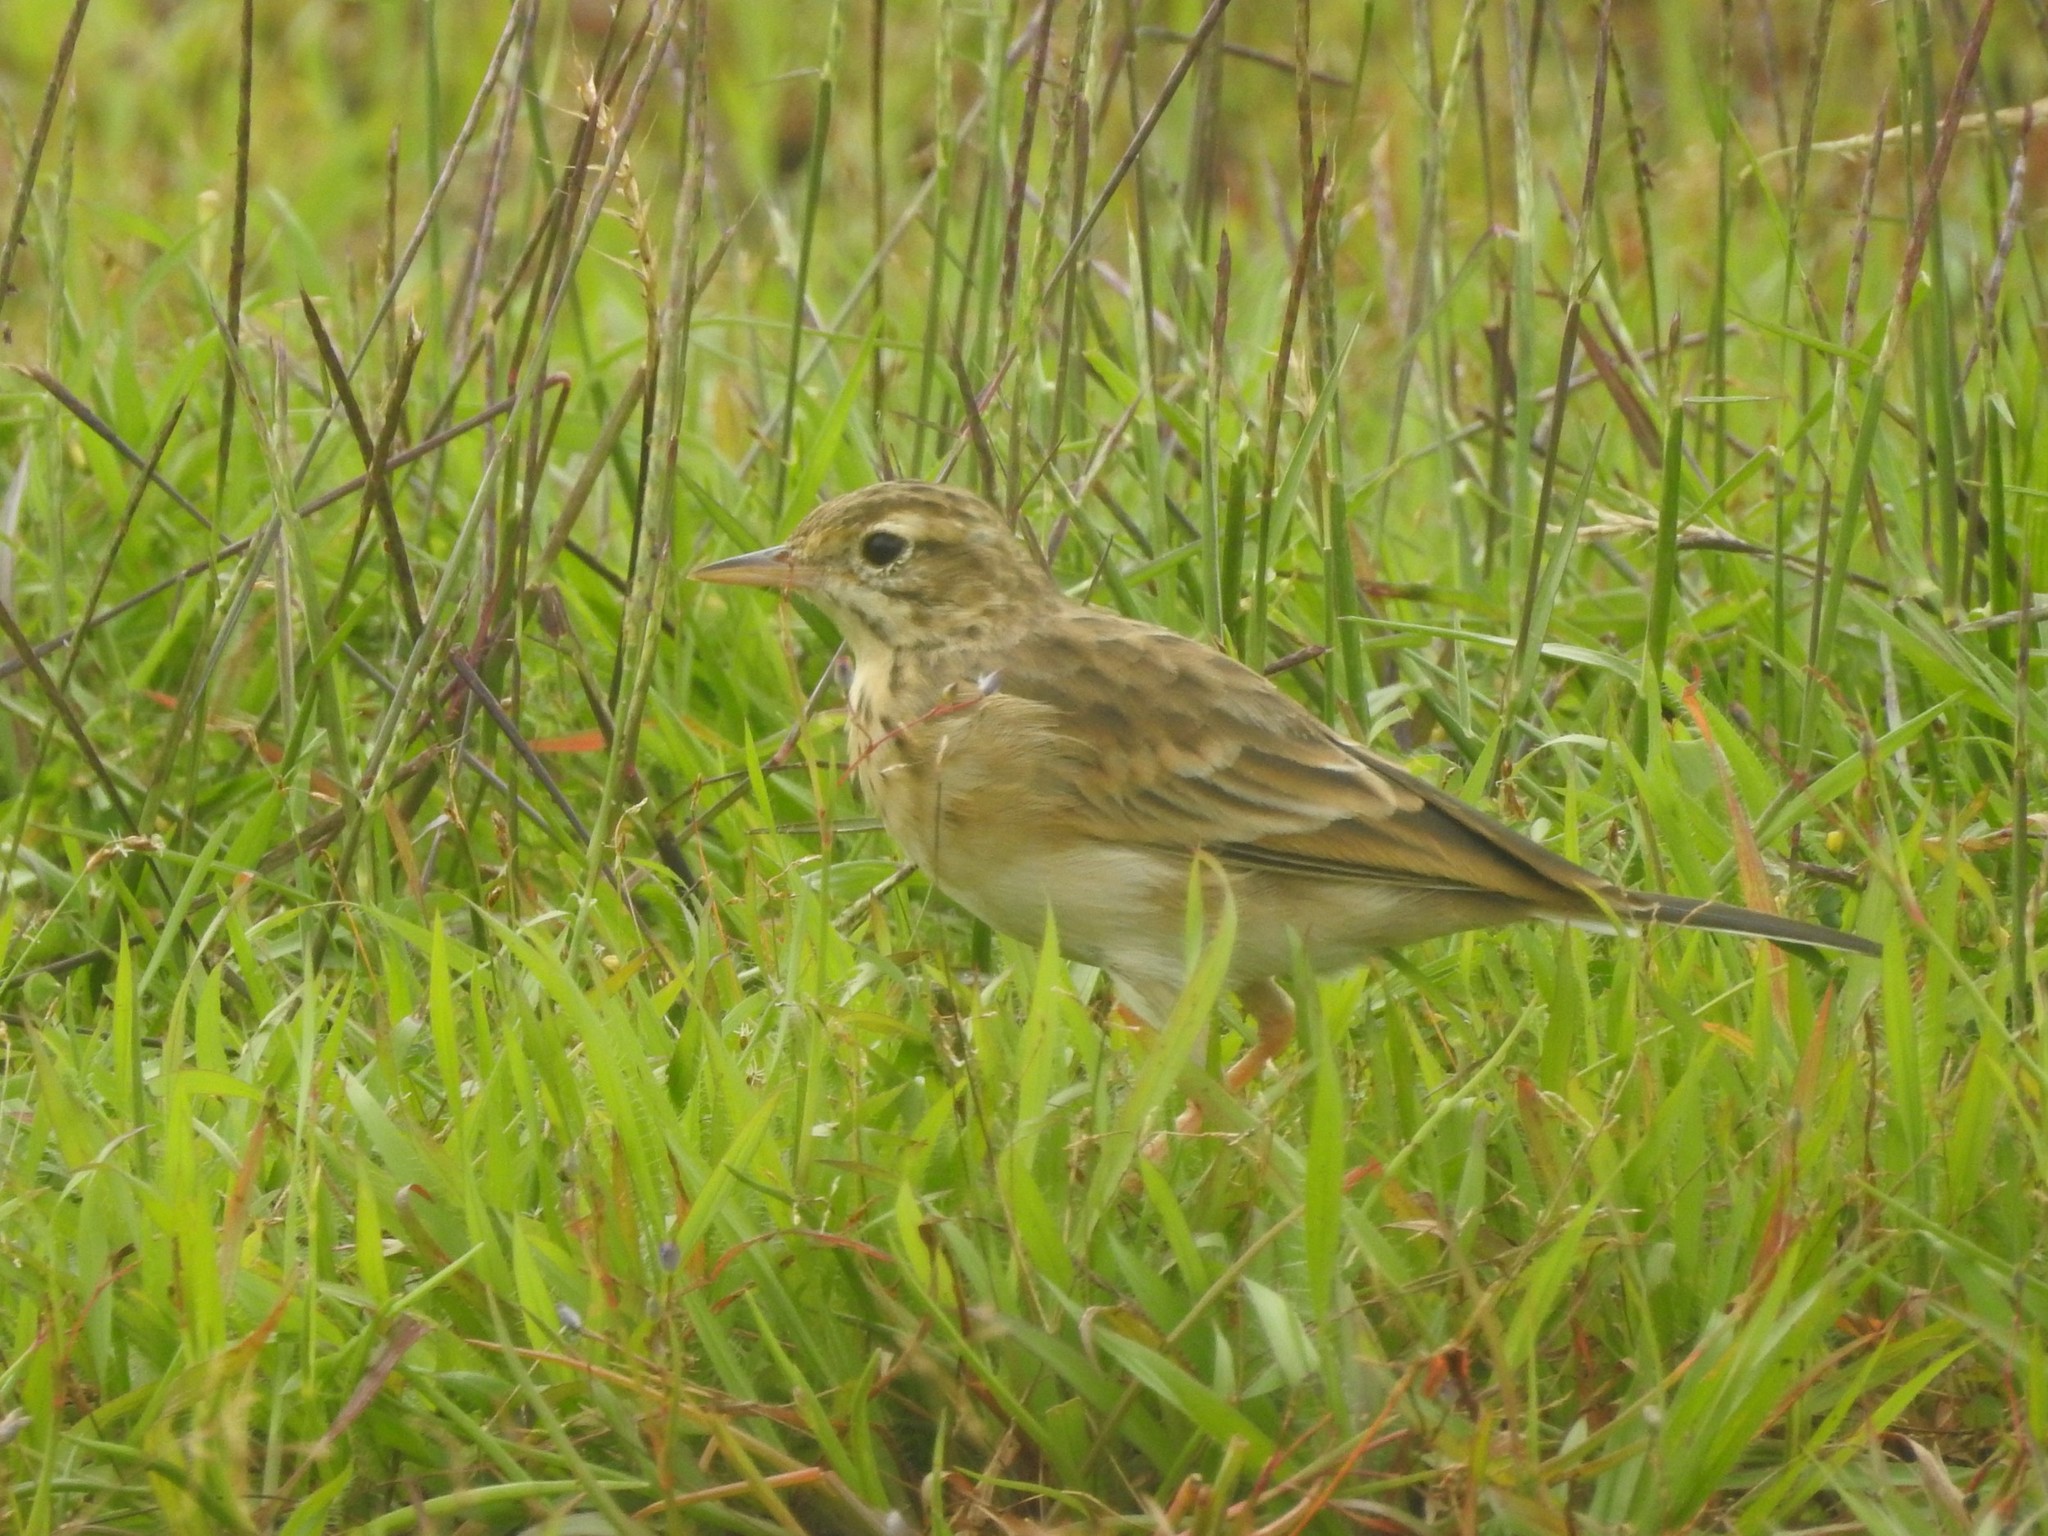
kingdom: Animalia
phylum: Chordata
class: Aves
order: Passeriformes
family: Motacillidae
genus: Anthus
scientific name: Anthus rufulus
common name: Paddyfield pipit
